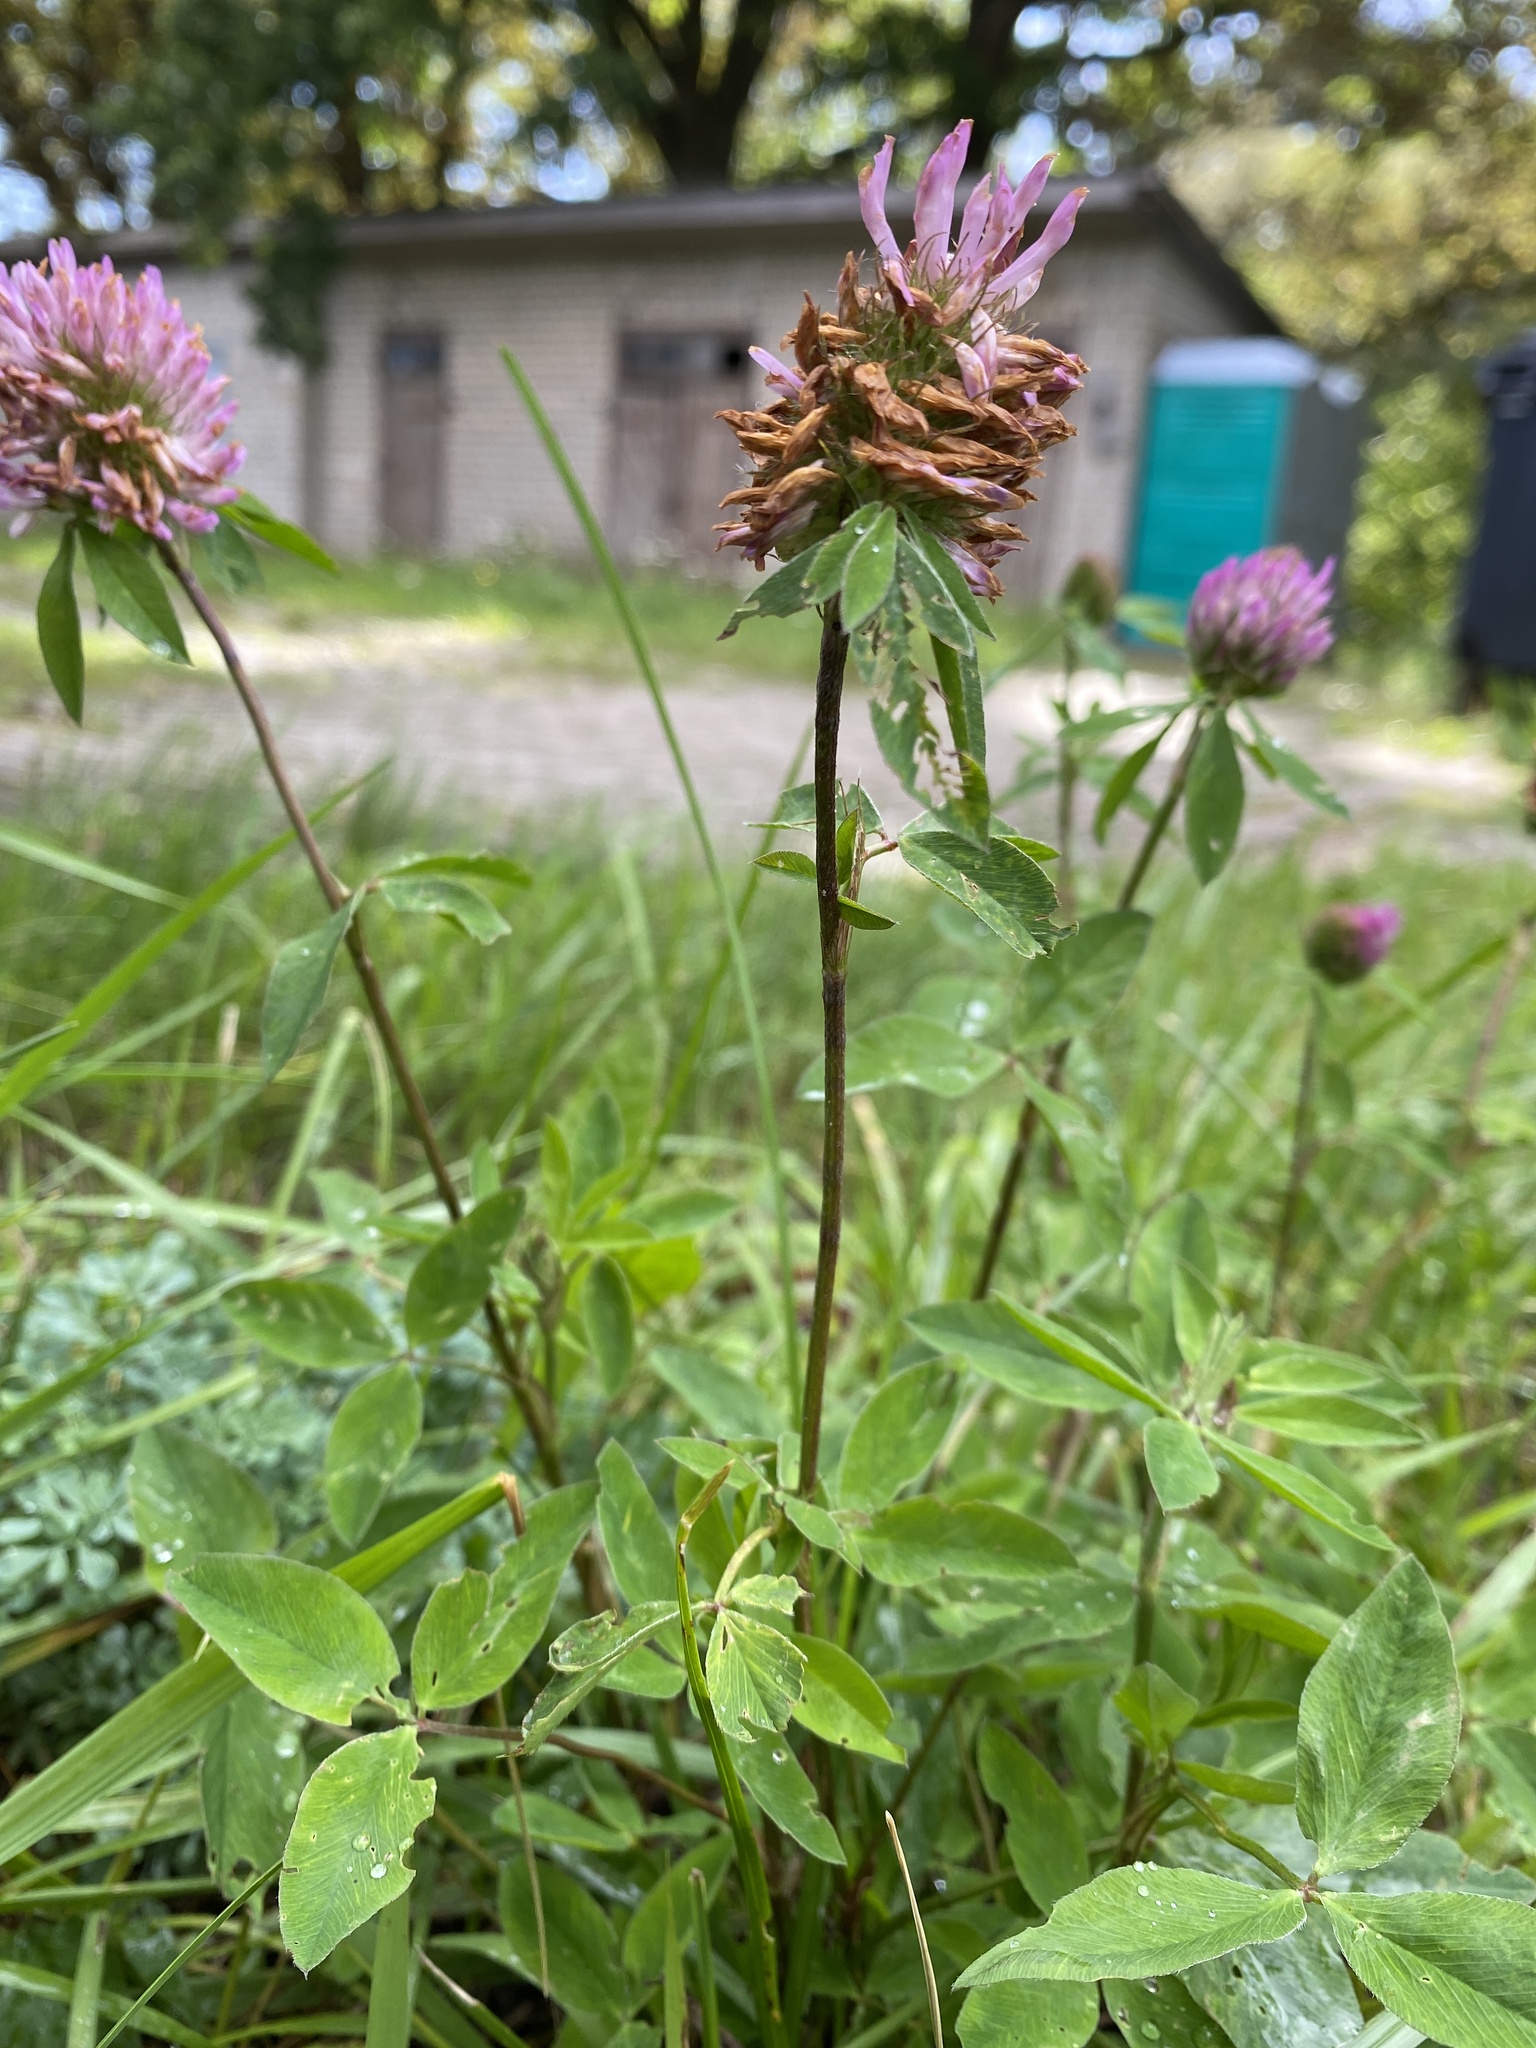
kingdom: Plantae
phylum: Tracheophyta
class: Magnoliopsida
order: Fabales
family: Fabaceae
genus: Trifolium
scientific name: Trifolium pratense
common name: Red clover
